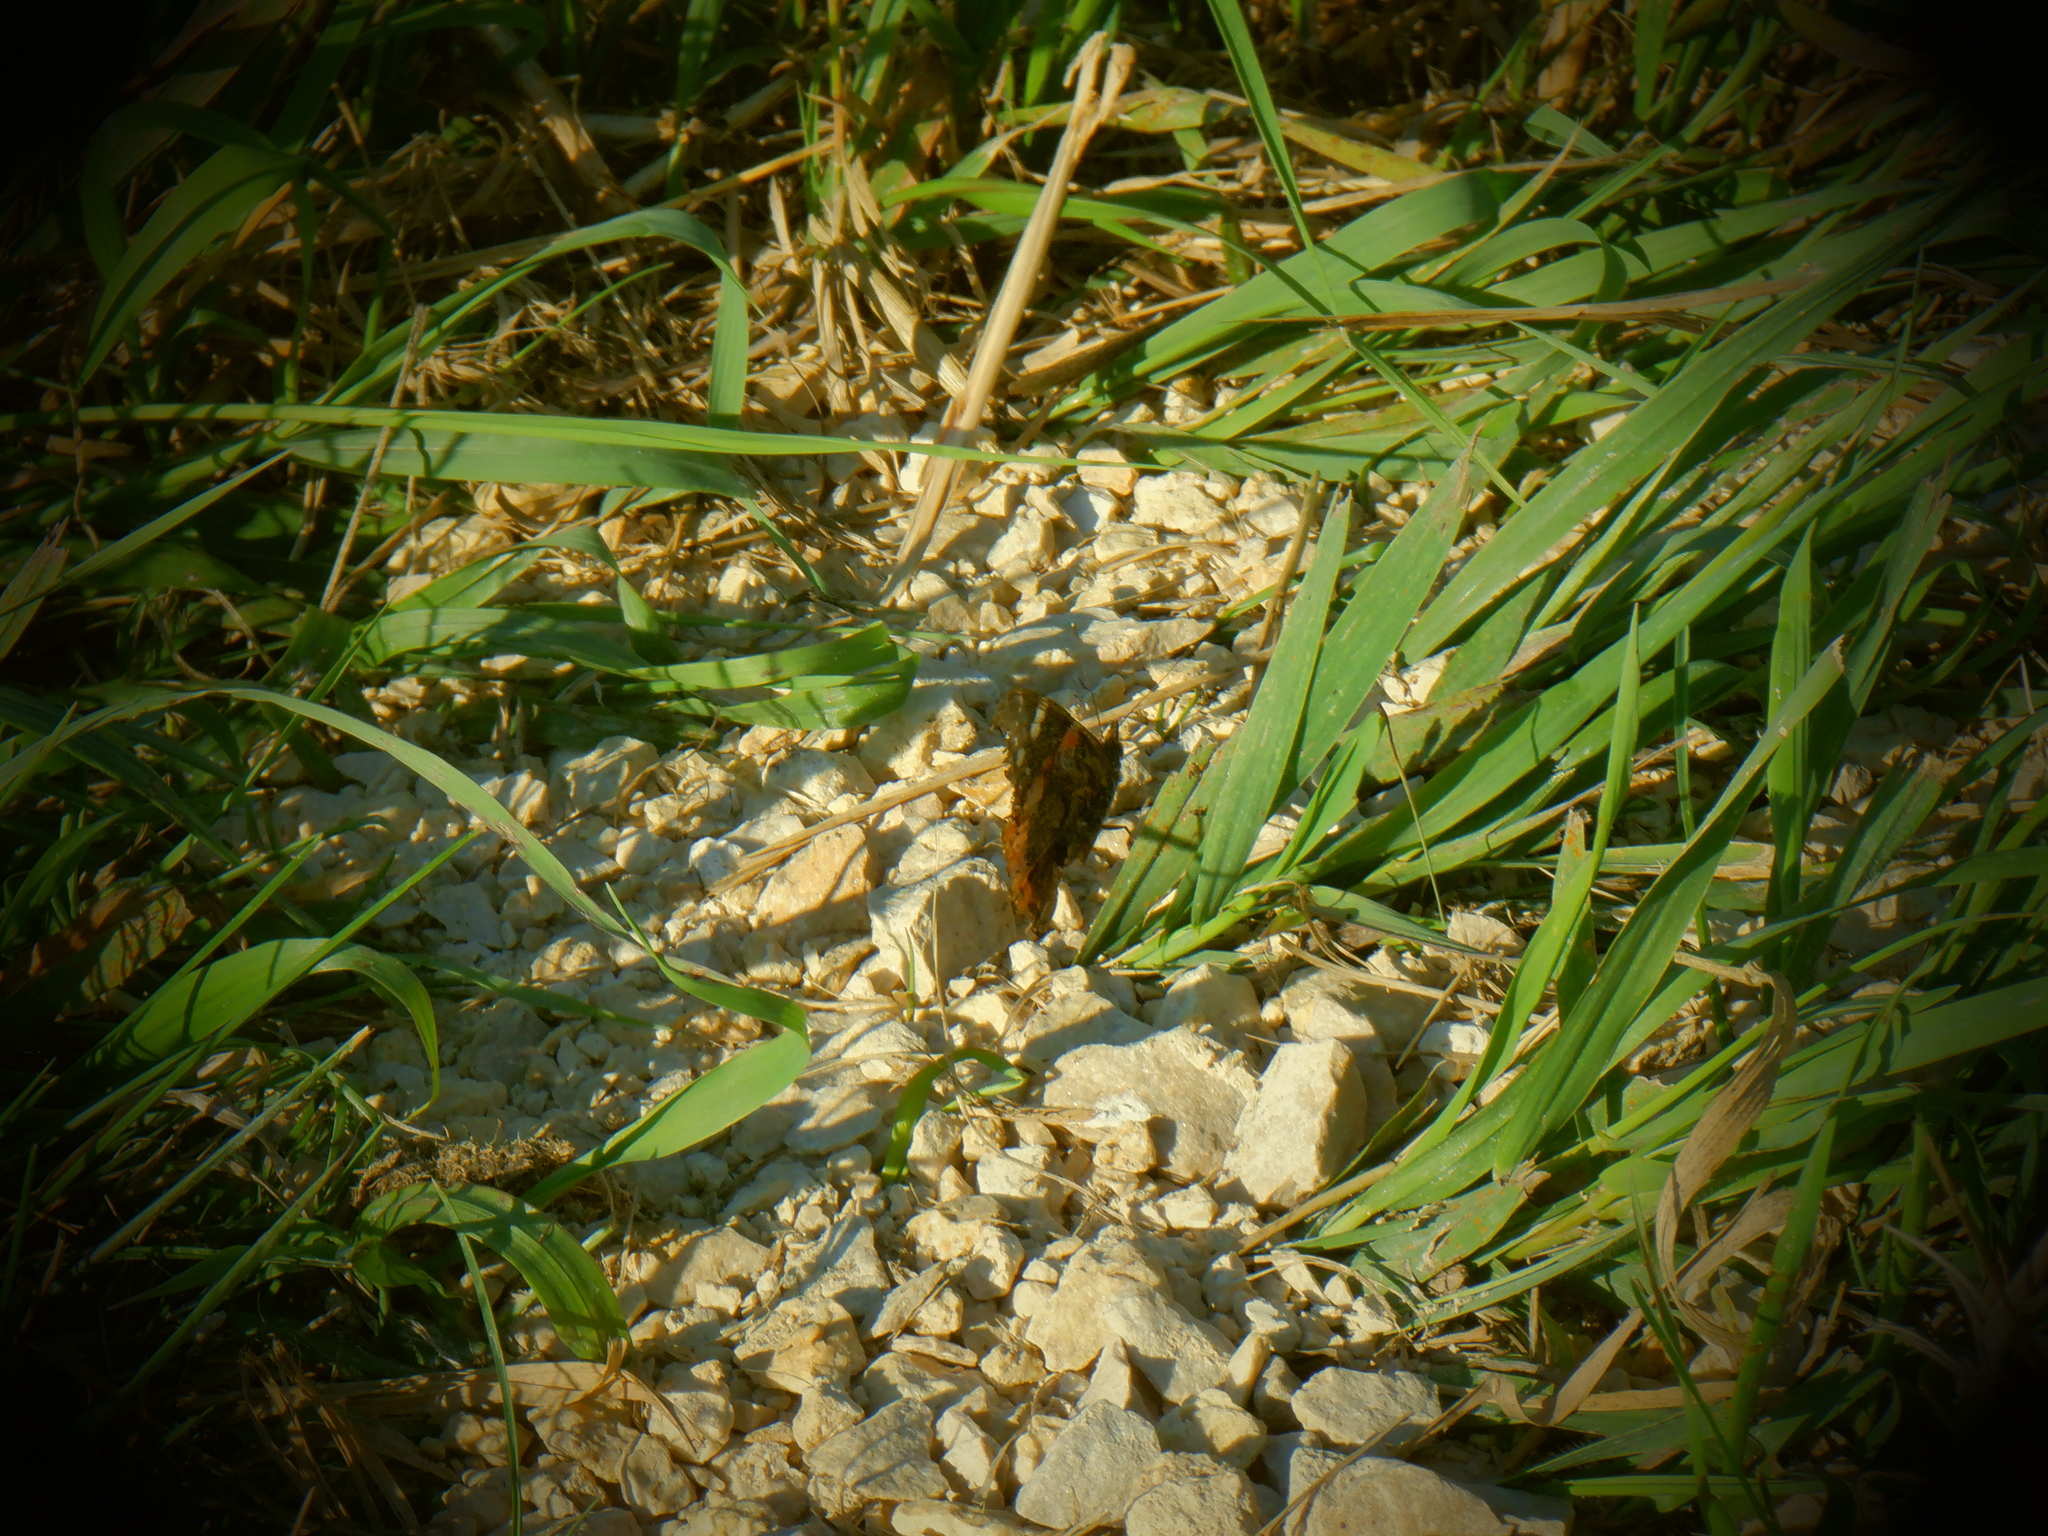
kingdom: Animalia
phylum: Arthropoda
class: Insecta
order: Lepidoptera
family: Nymphalidae
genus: Vanessa
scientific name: Vanessa atalanta
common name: Red admiral
